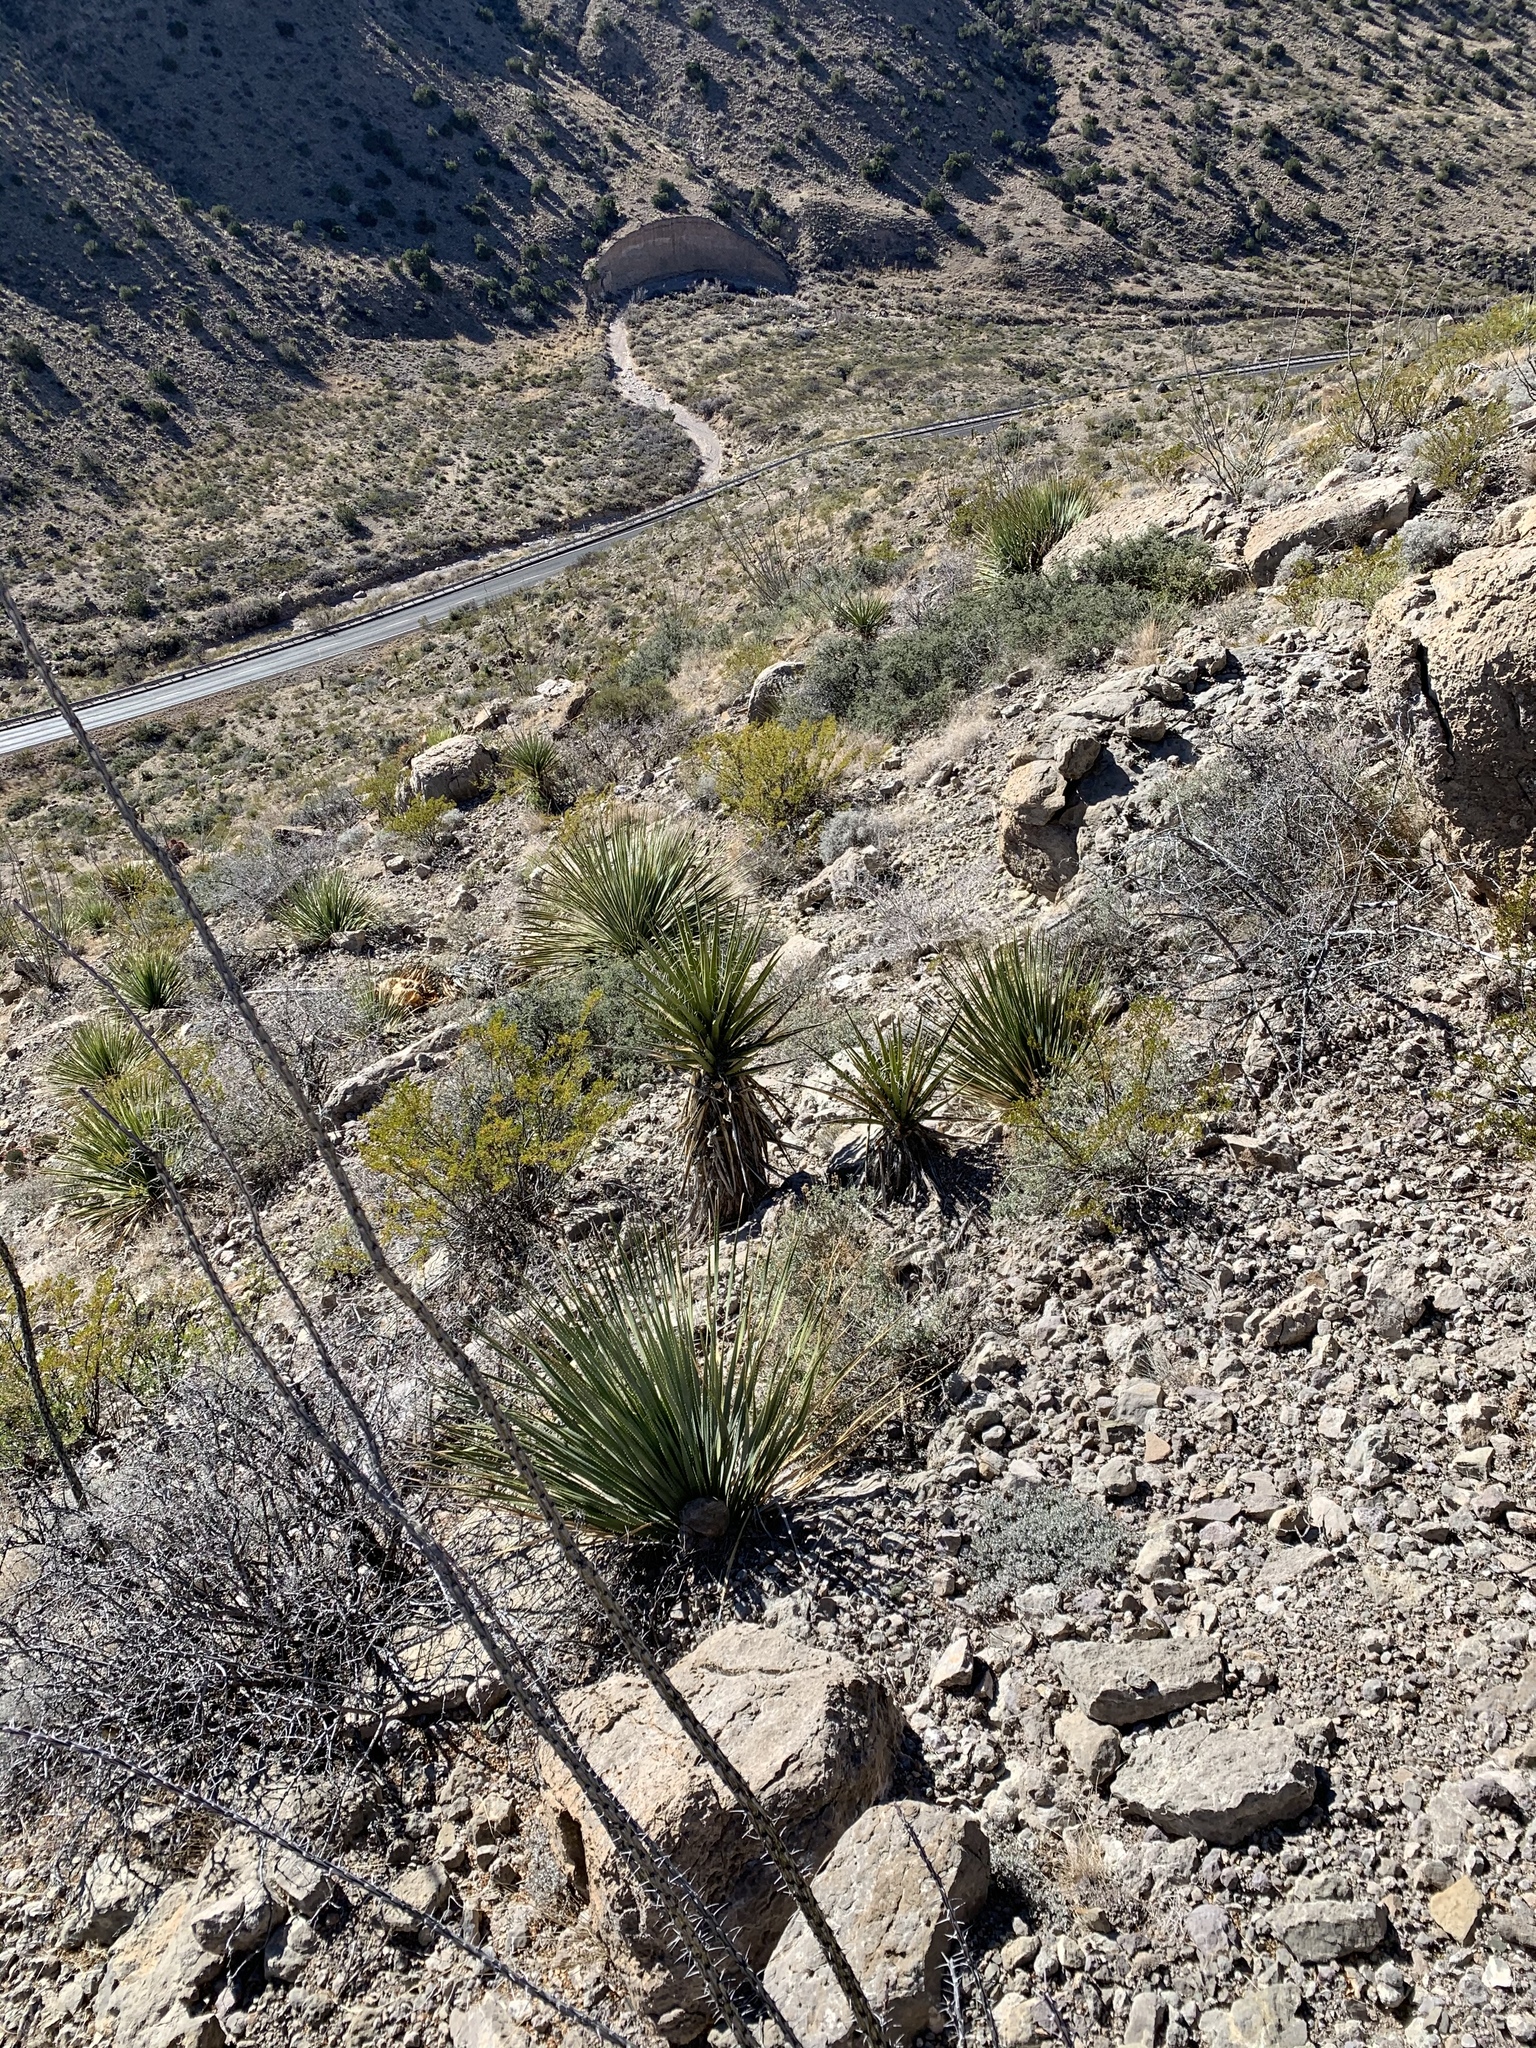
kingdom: Plantae
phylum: Tracheophyta
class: Liliopsida
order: Asparagales
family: Asparagaceae
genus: Yucca
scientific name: Yucca treculiana
